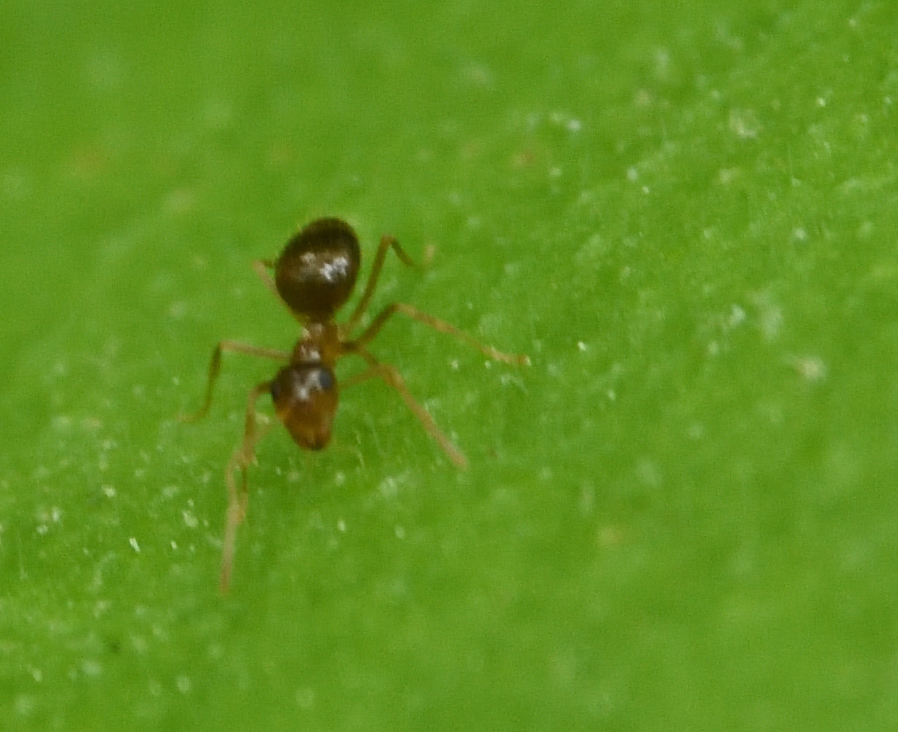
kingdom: Animalia
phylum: Arthropoda
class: Insecta
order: Hymenoptera
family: Formicidae
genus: Prenolepis
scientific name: Prenolepis imparis
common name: Small honey ant
